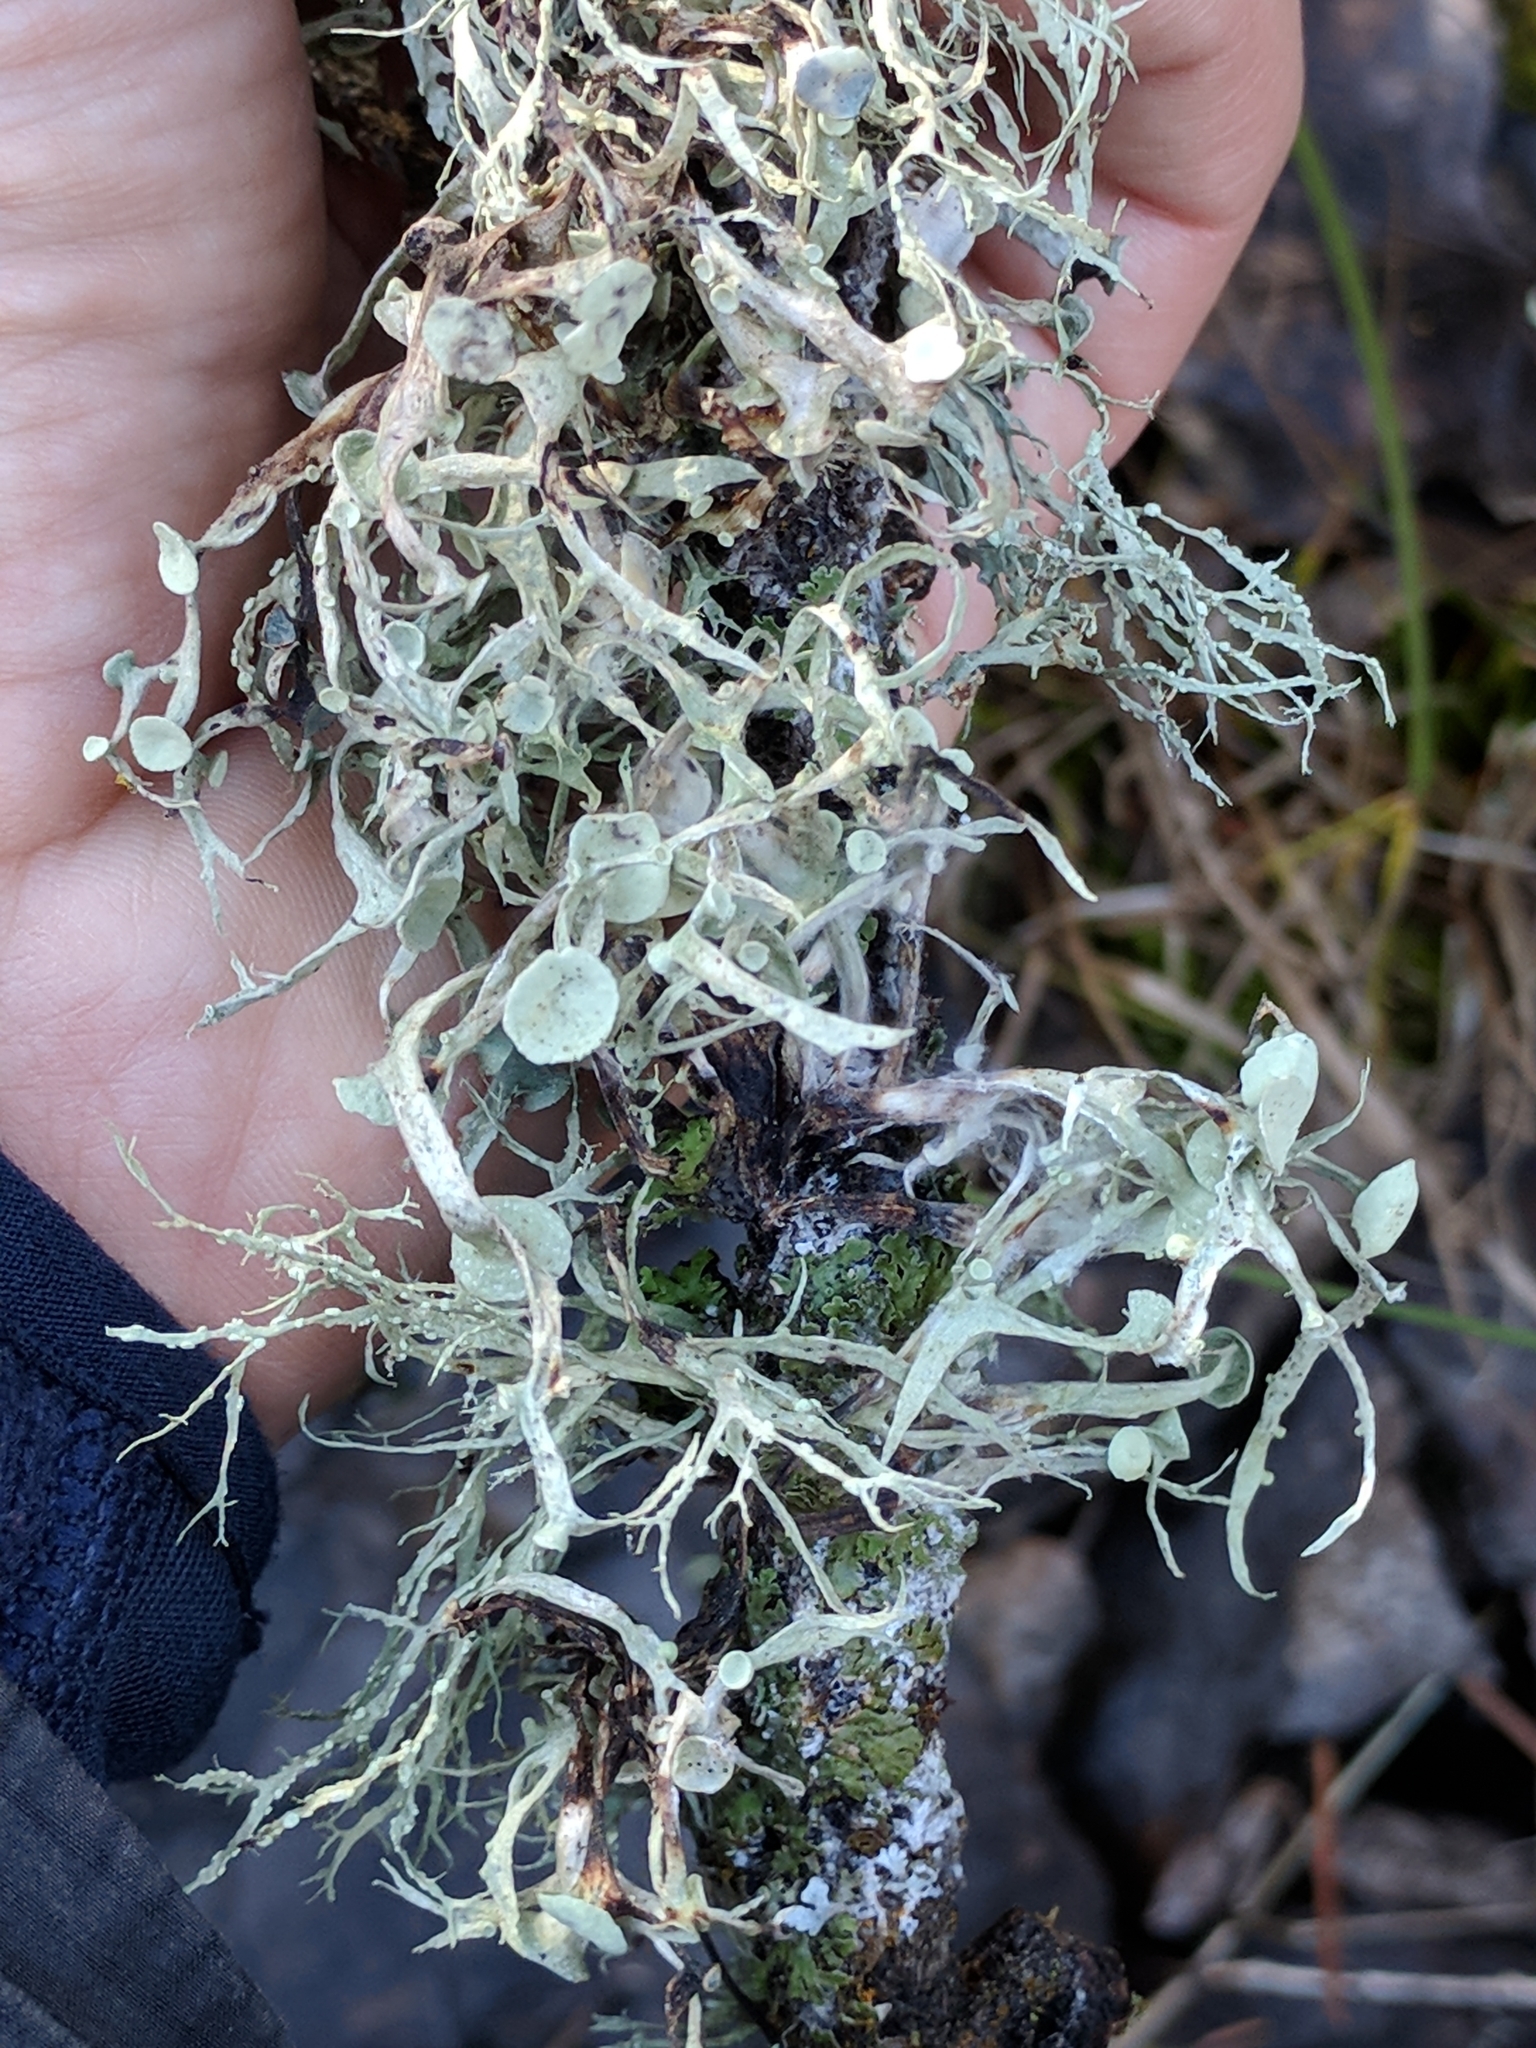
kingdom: Fungi
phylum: Ascomycota
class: Lecanoromycetes
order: Lecanorales
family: Ramalinaceae
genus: Ramalina
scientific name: Ramalina leptocarpha
